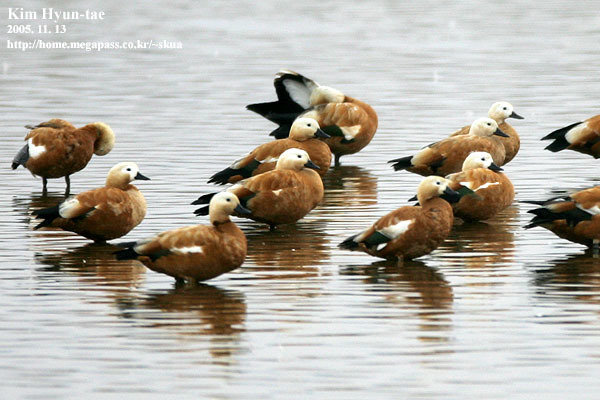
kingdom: Animalia
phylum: Chordata
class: Aves
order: Anseriformes
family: Anatidae
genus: Tadorna
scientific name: Tadorna ferruginea
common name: Ruddy shelduck
